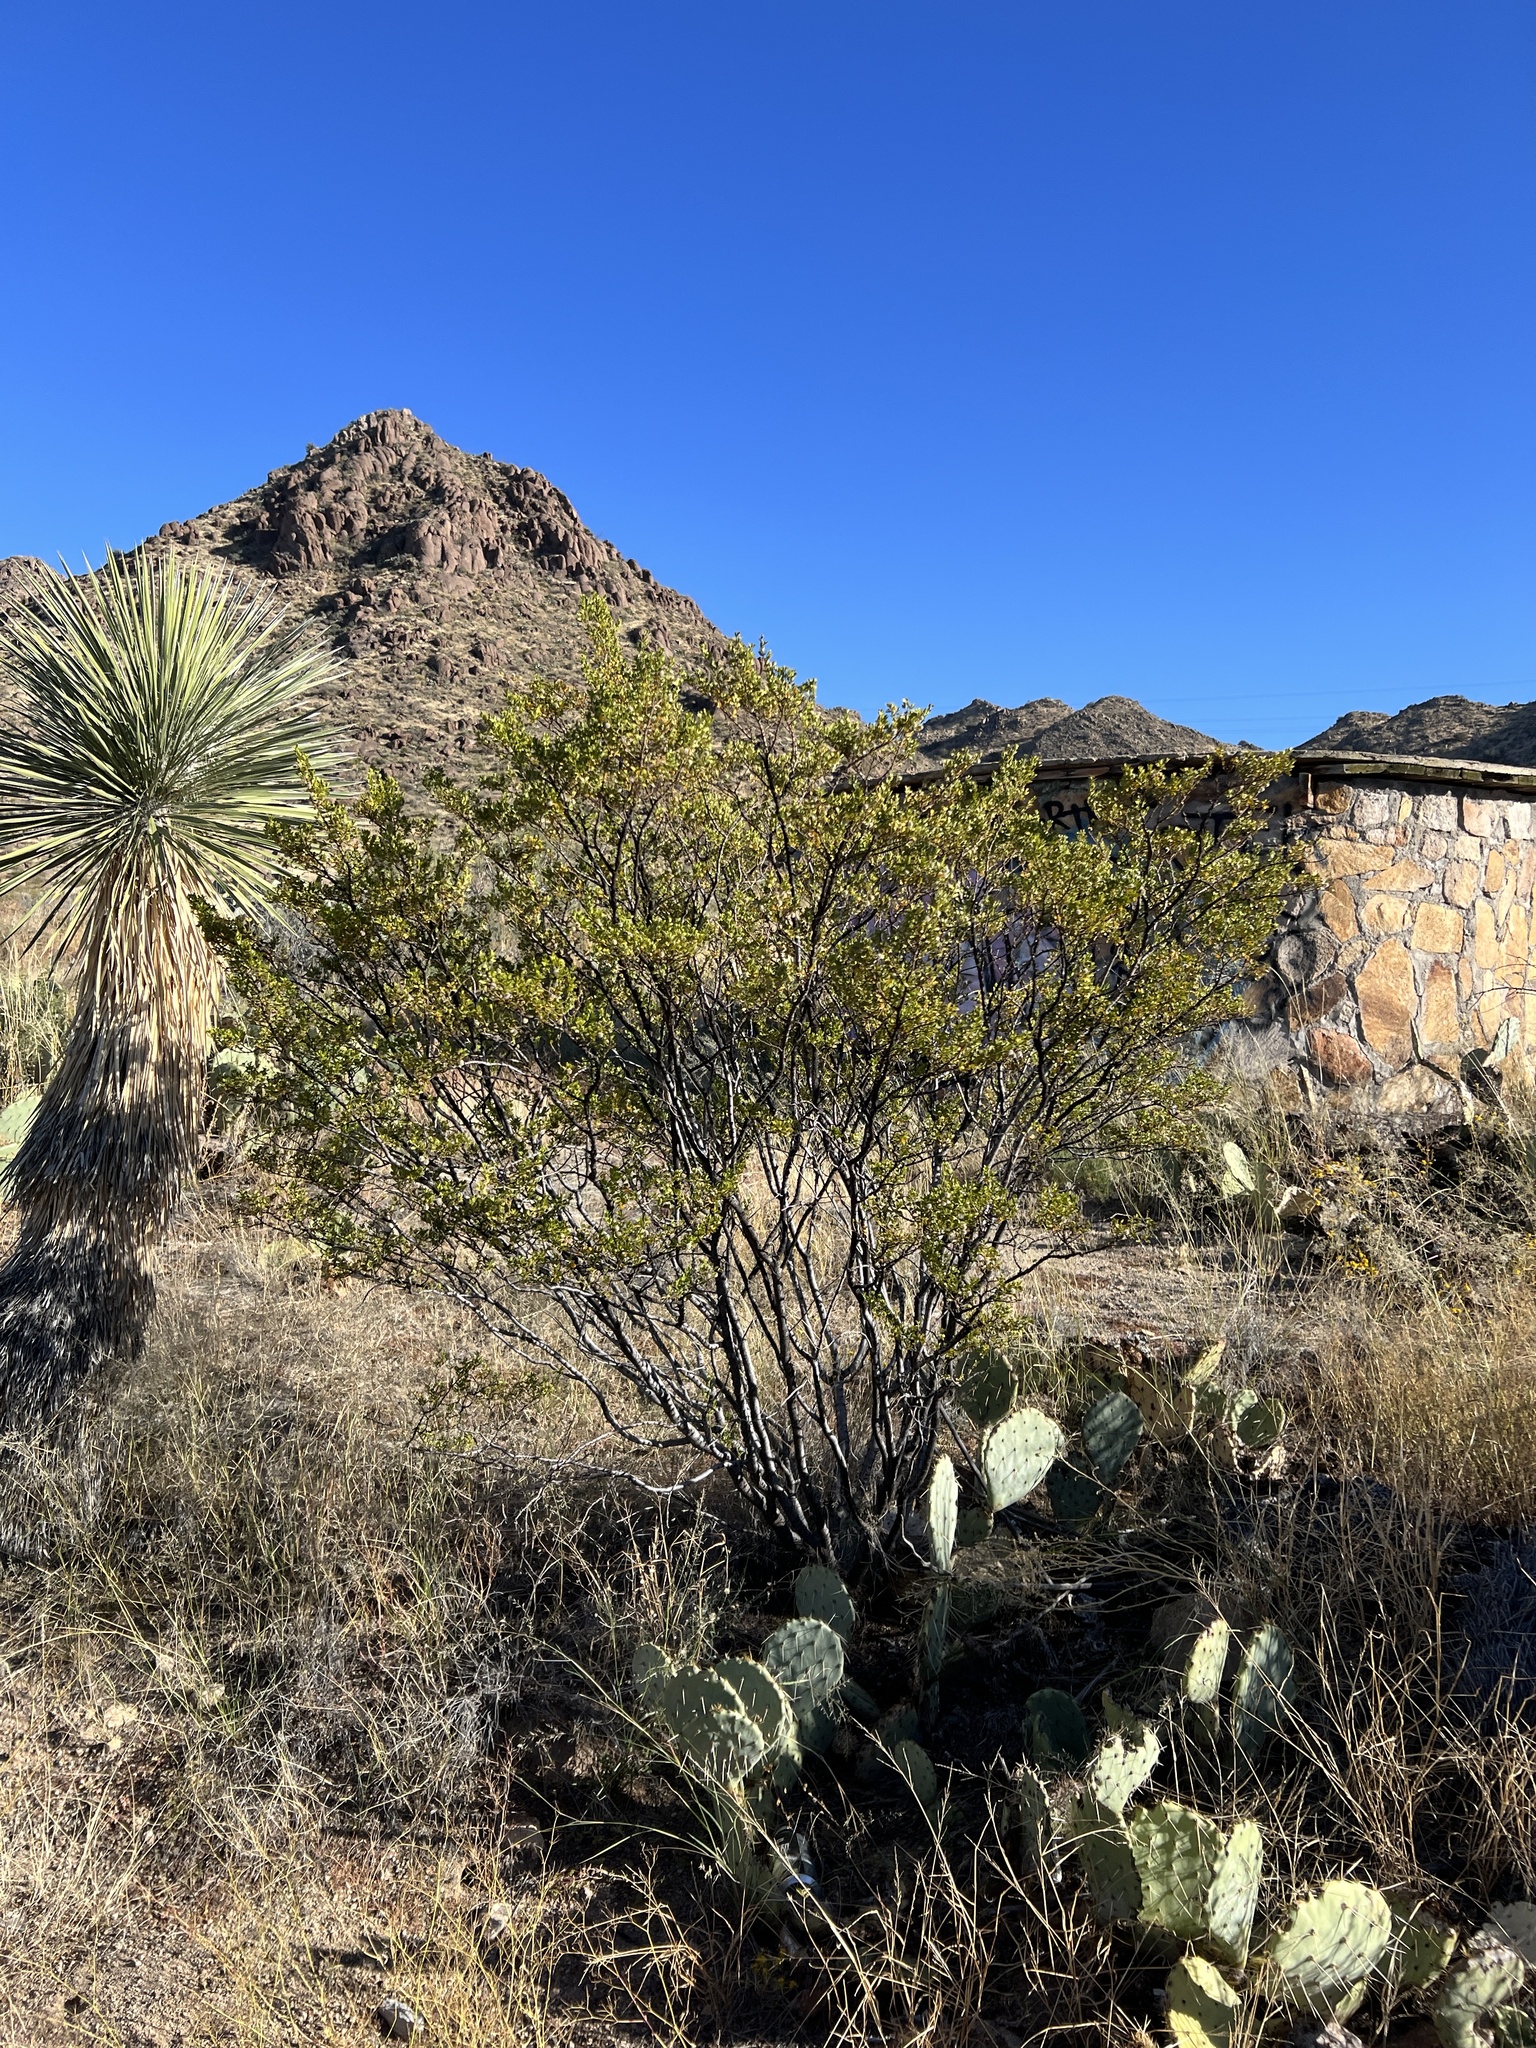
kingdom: Plantae
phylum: Tracheophyta
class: Magnoliopsida
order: Zygophyllales
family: Zygophyllaceae
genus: Larrea
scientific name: Larrea tridentata
